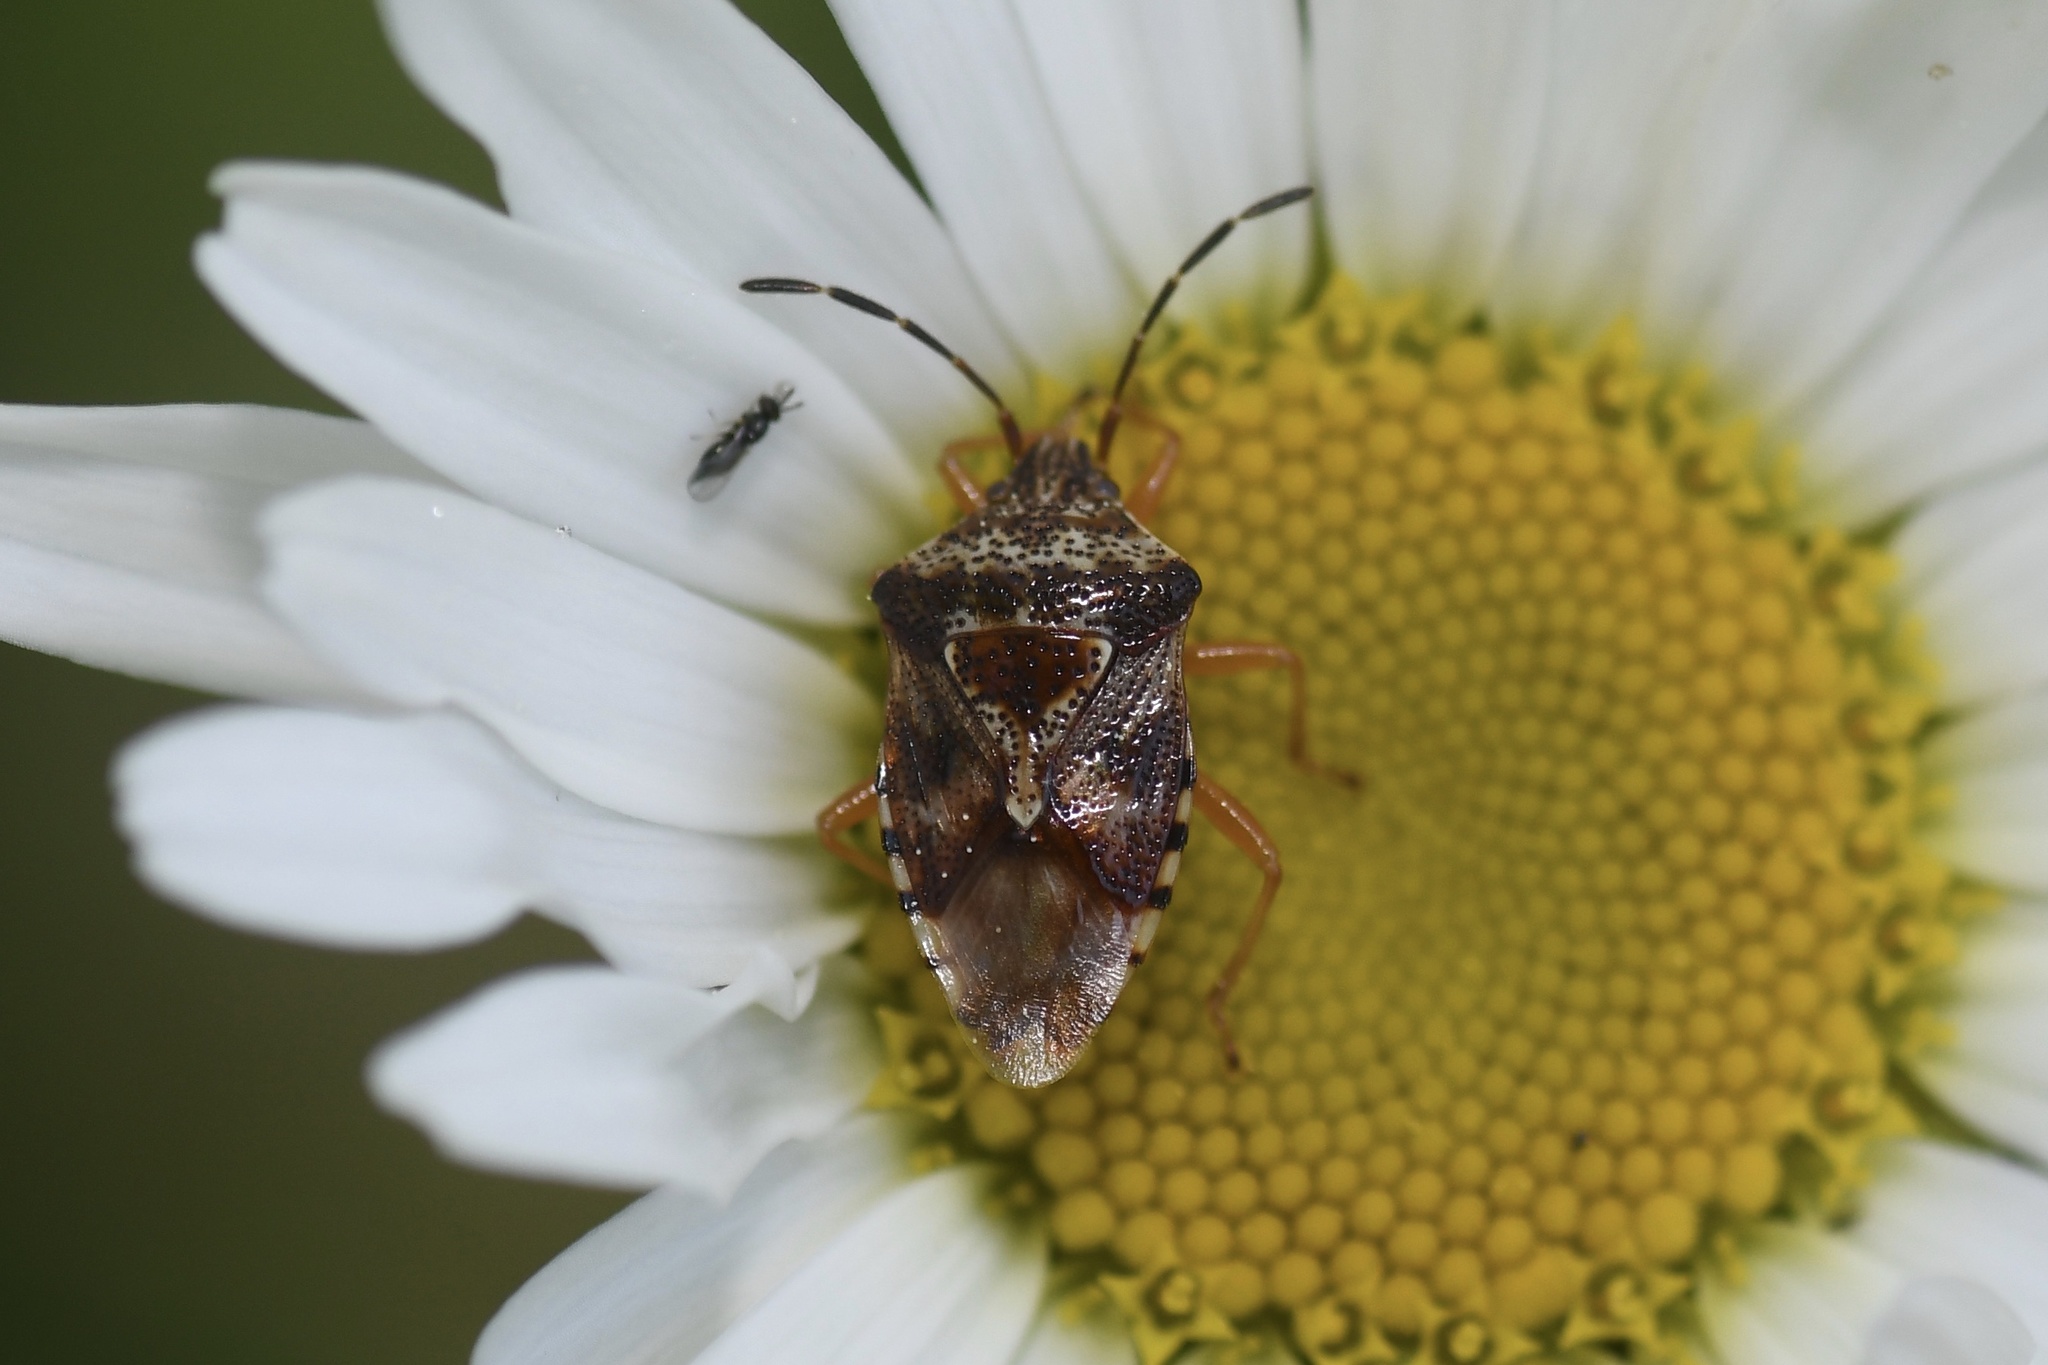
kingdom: Animalia
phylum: Arthropoda
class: Insecta
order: Hemiptera
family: Acanthosomatidae
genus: Elasmucha
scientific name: Elasmucha lateralis
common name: Shield bug
